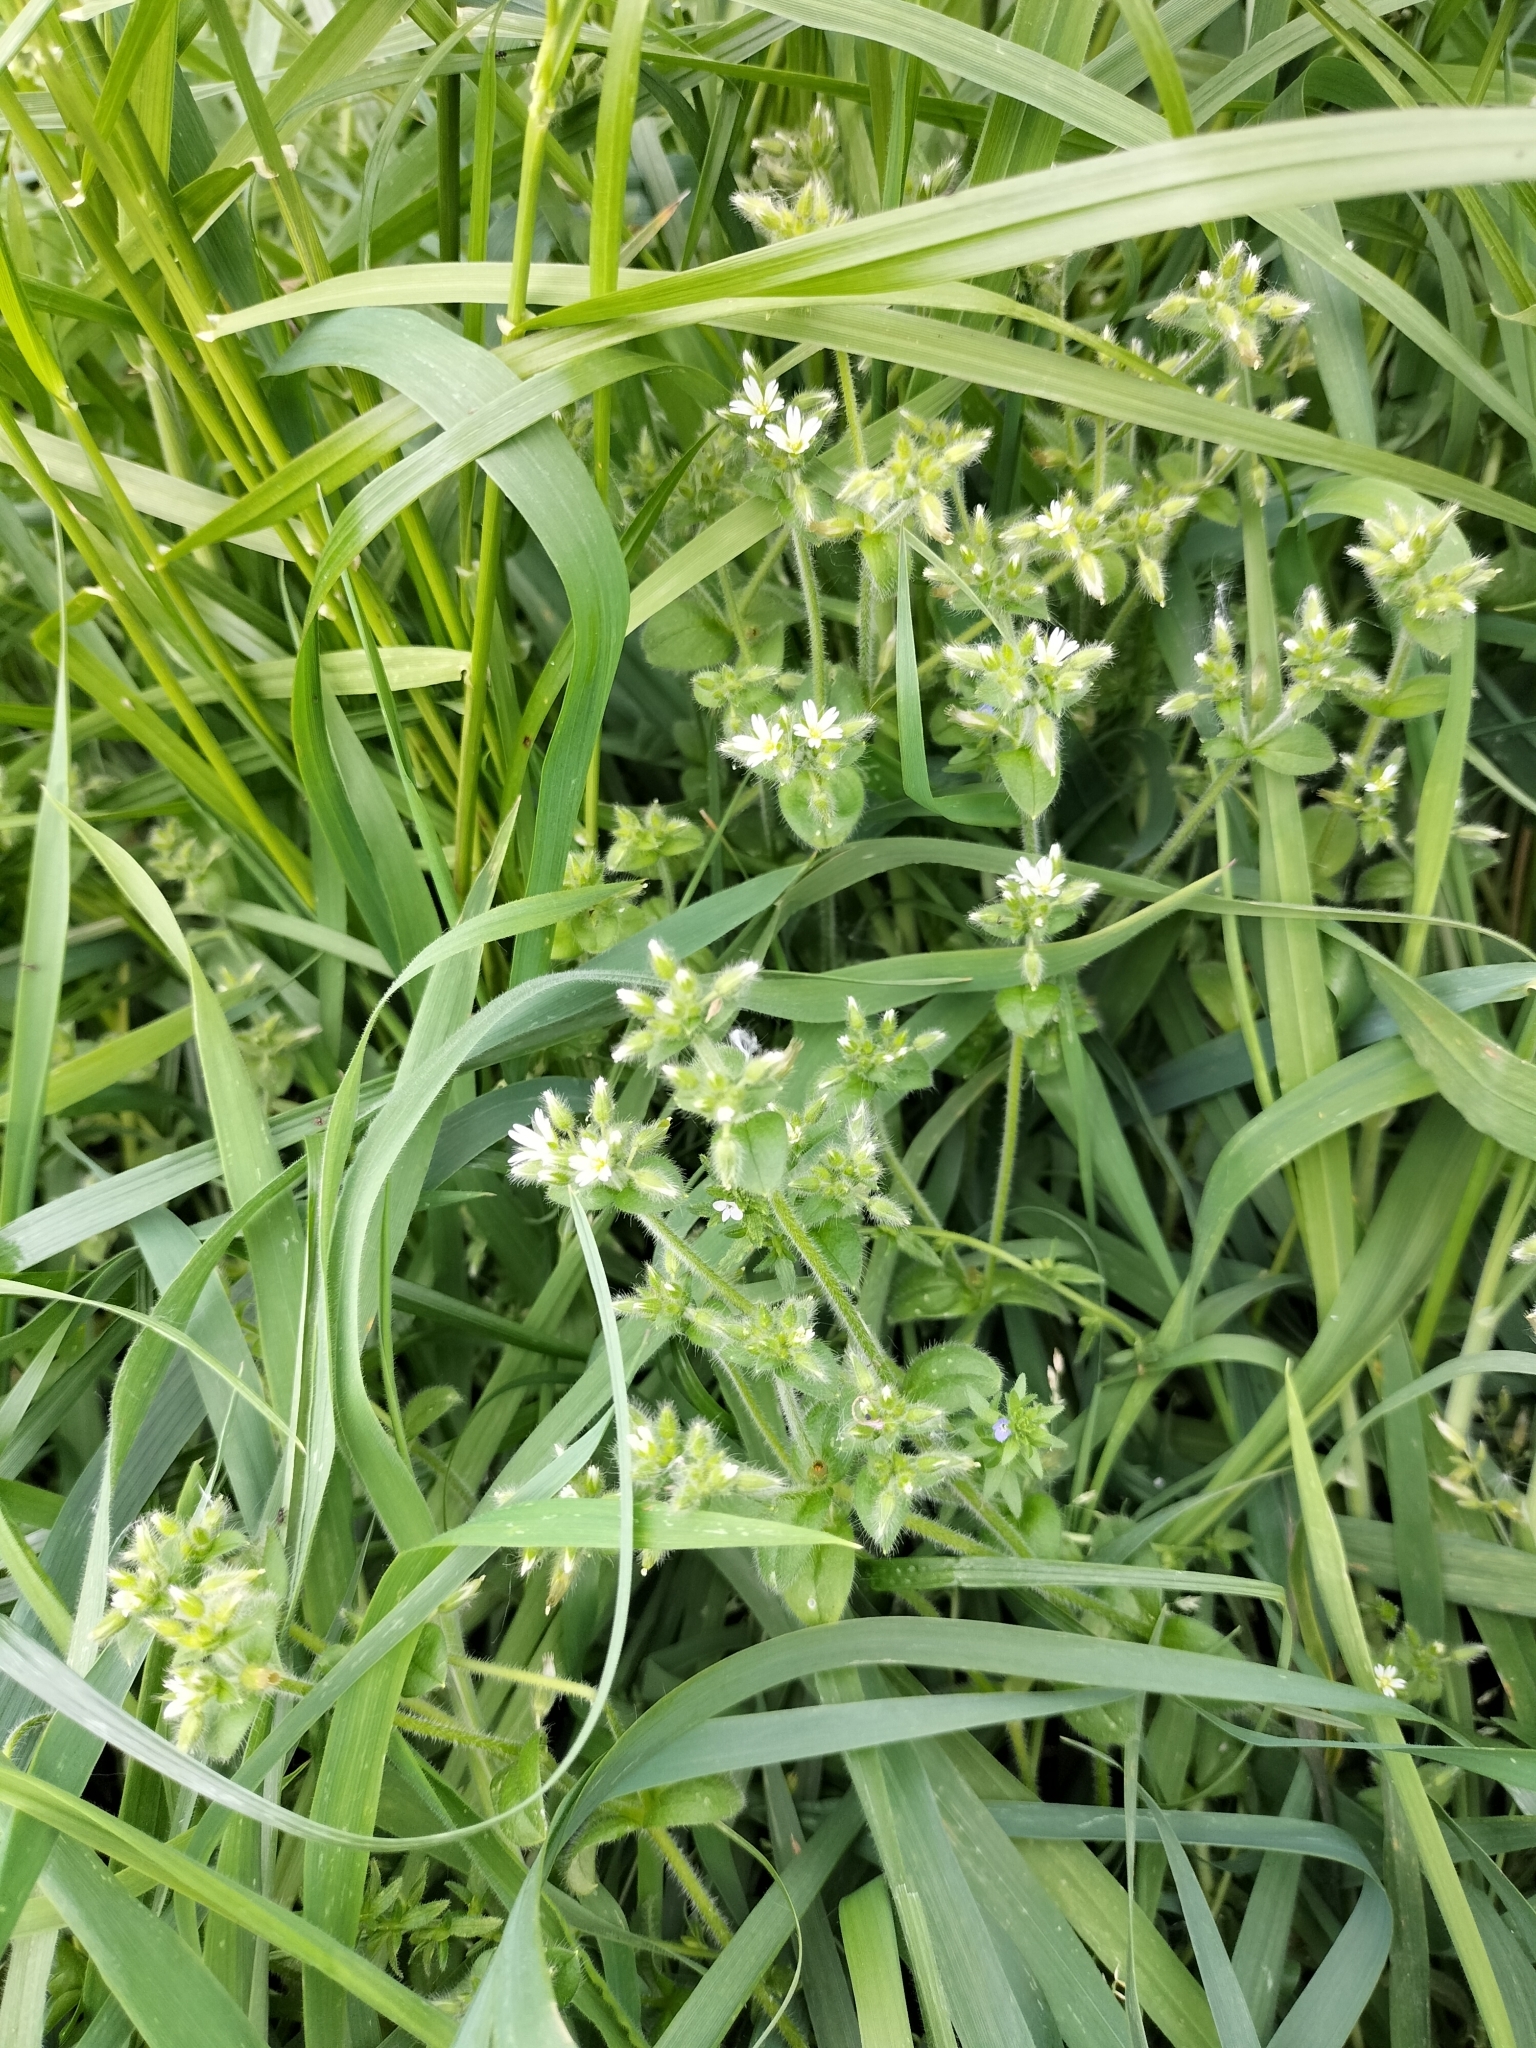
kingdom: Plantae
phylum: Tracheophyta
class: Magnoliopsida
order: Caryophyllales
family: Caryophyllaceae
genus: Cerastium
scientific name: Cerastium glomeratum
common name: Sticky chickweed
